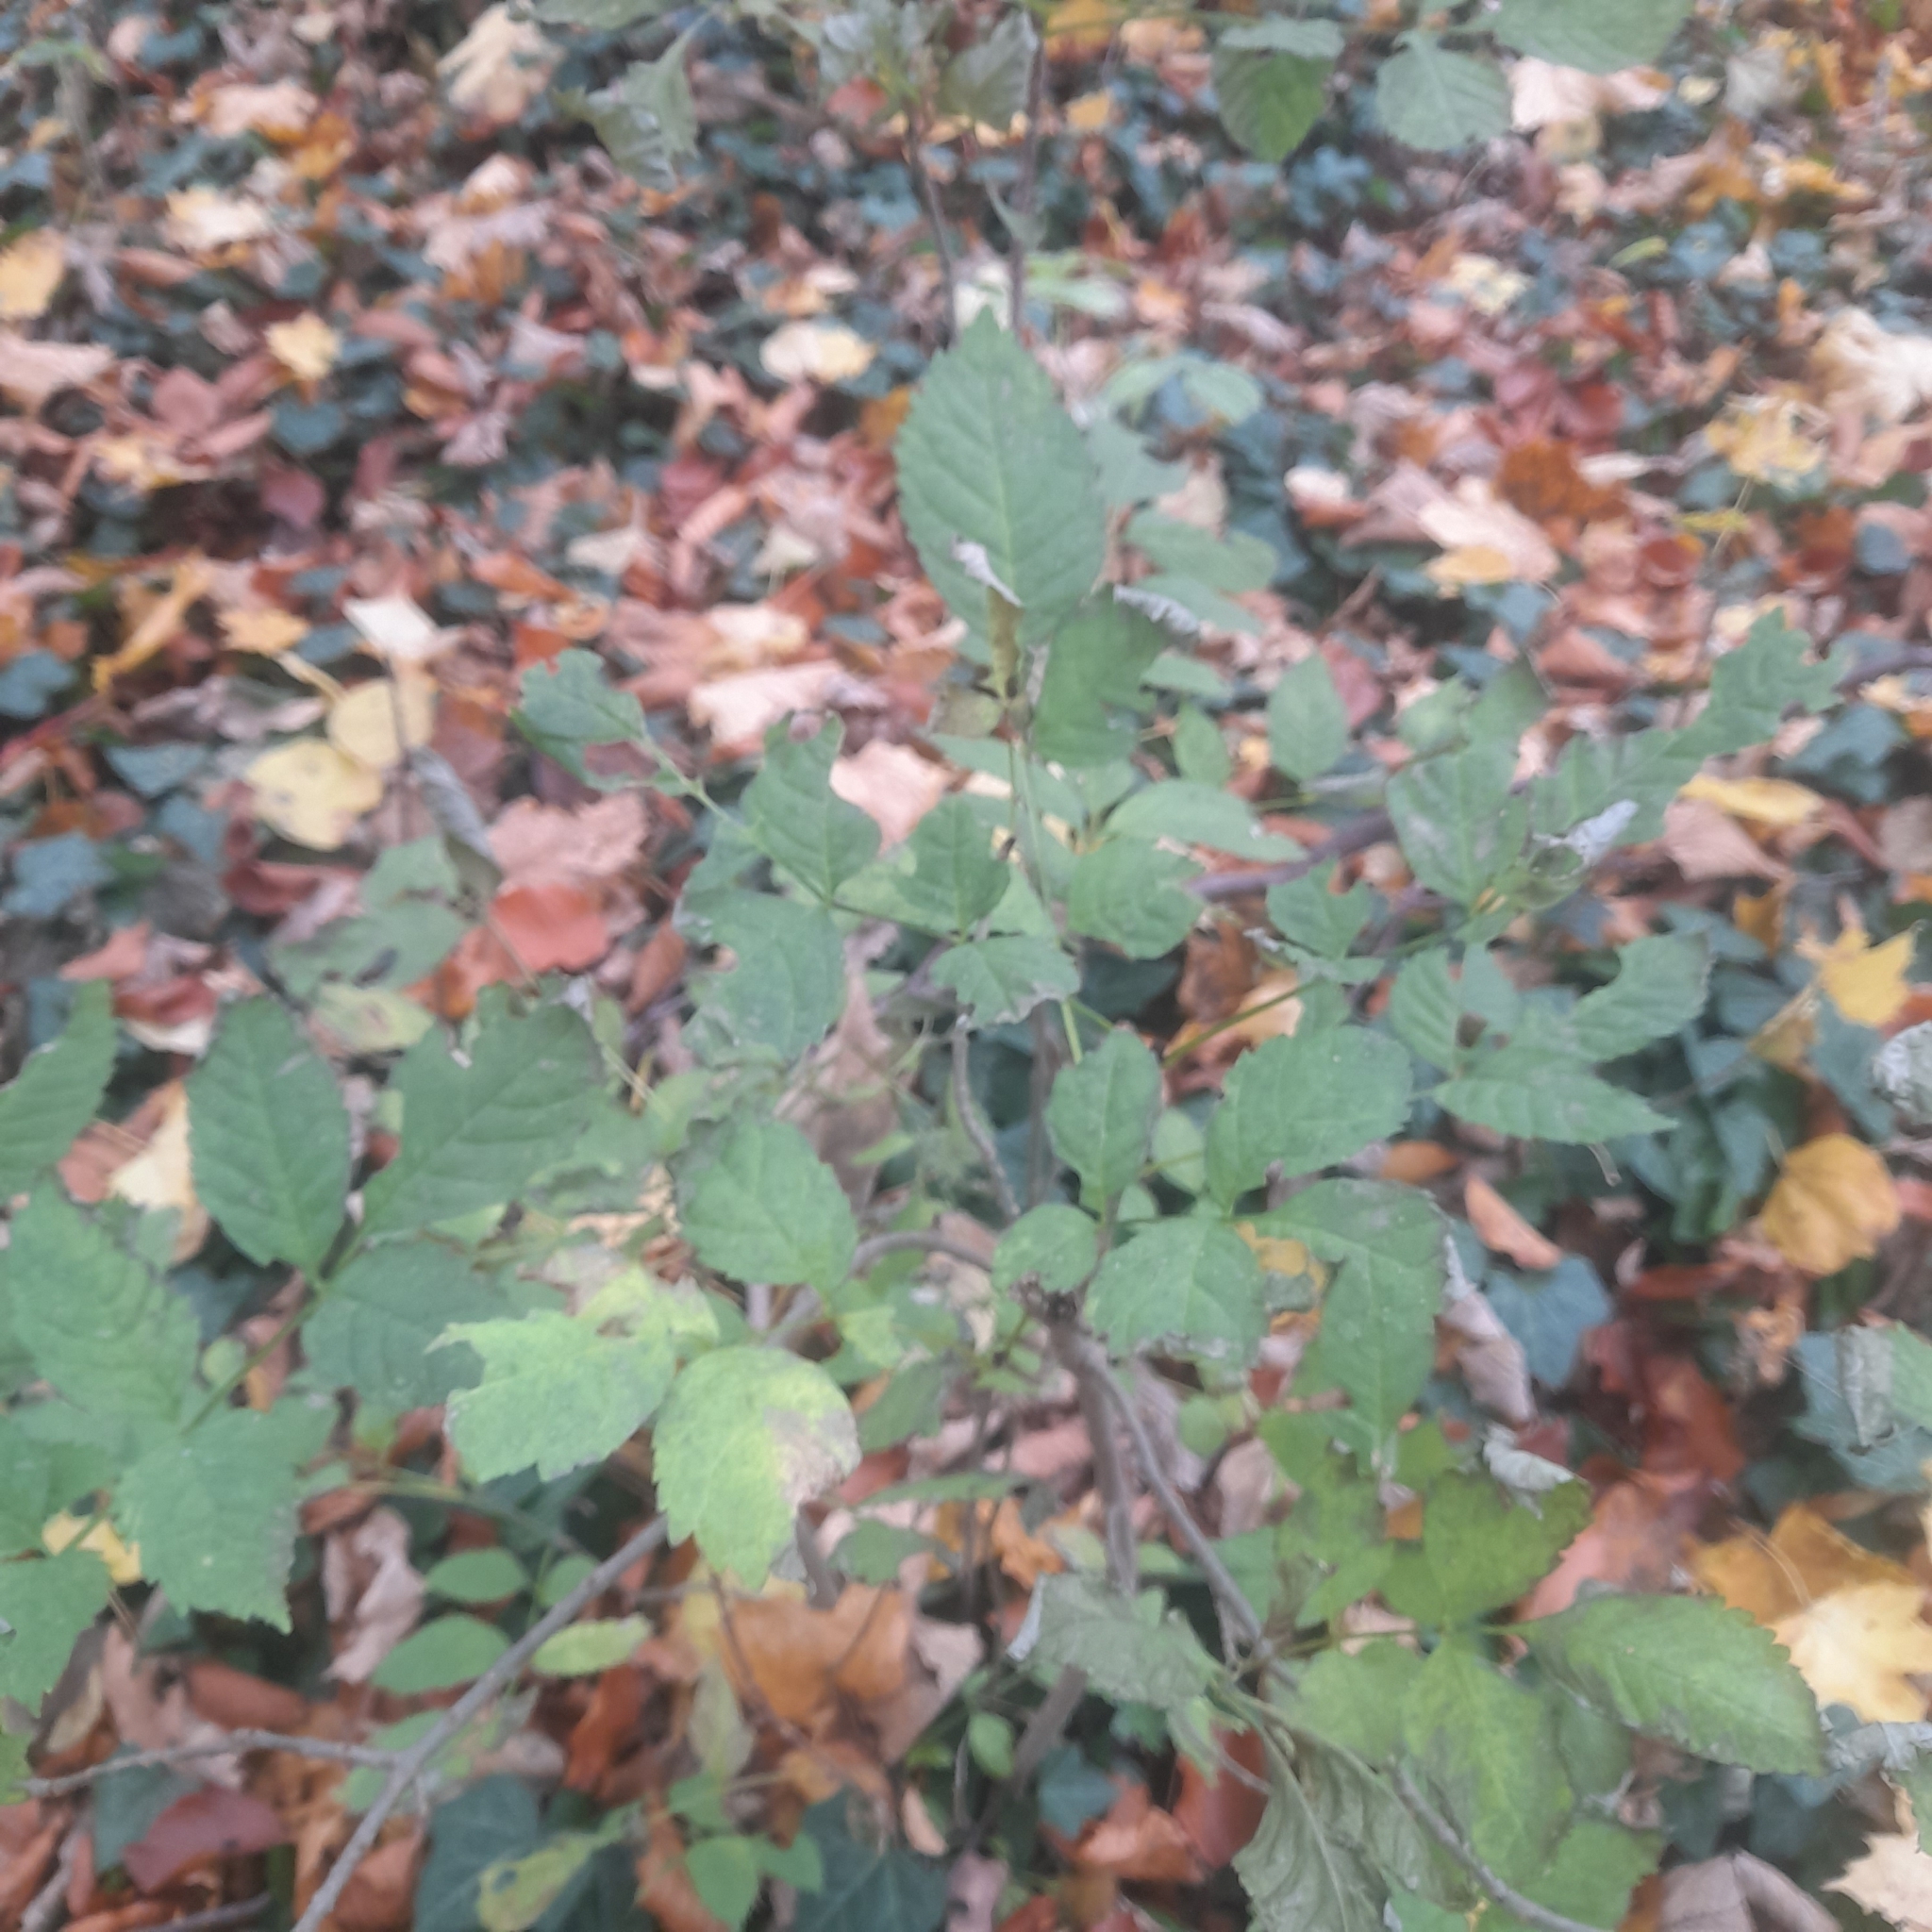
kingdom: Plantae
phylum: Tracheophyta
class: Magnoliopsida
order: Lamiales
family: Oleaceae
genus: Fraxinus
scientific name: Fraxinus excelsior
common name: European ash
